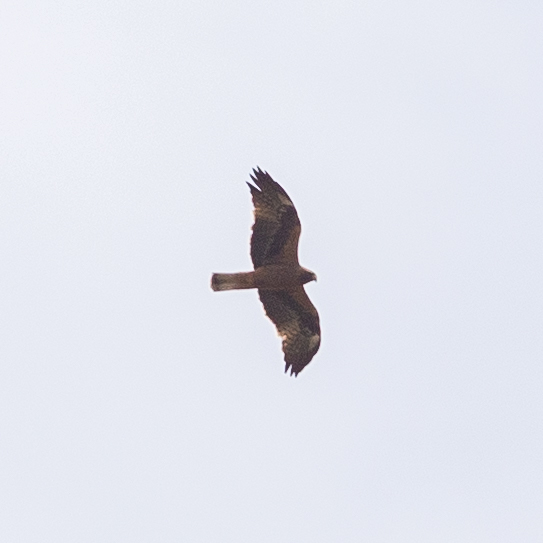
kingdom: Animalia
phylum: Chordata
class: Aves
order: Accipitriformes
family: Accipitridae
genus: Hieraaetus
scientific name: Hieraaetus pennatus
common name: Booted eagle
